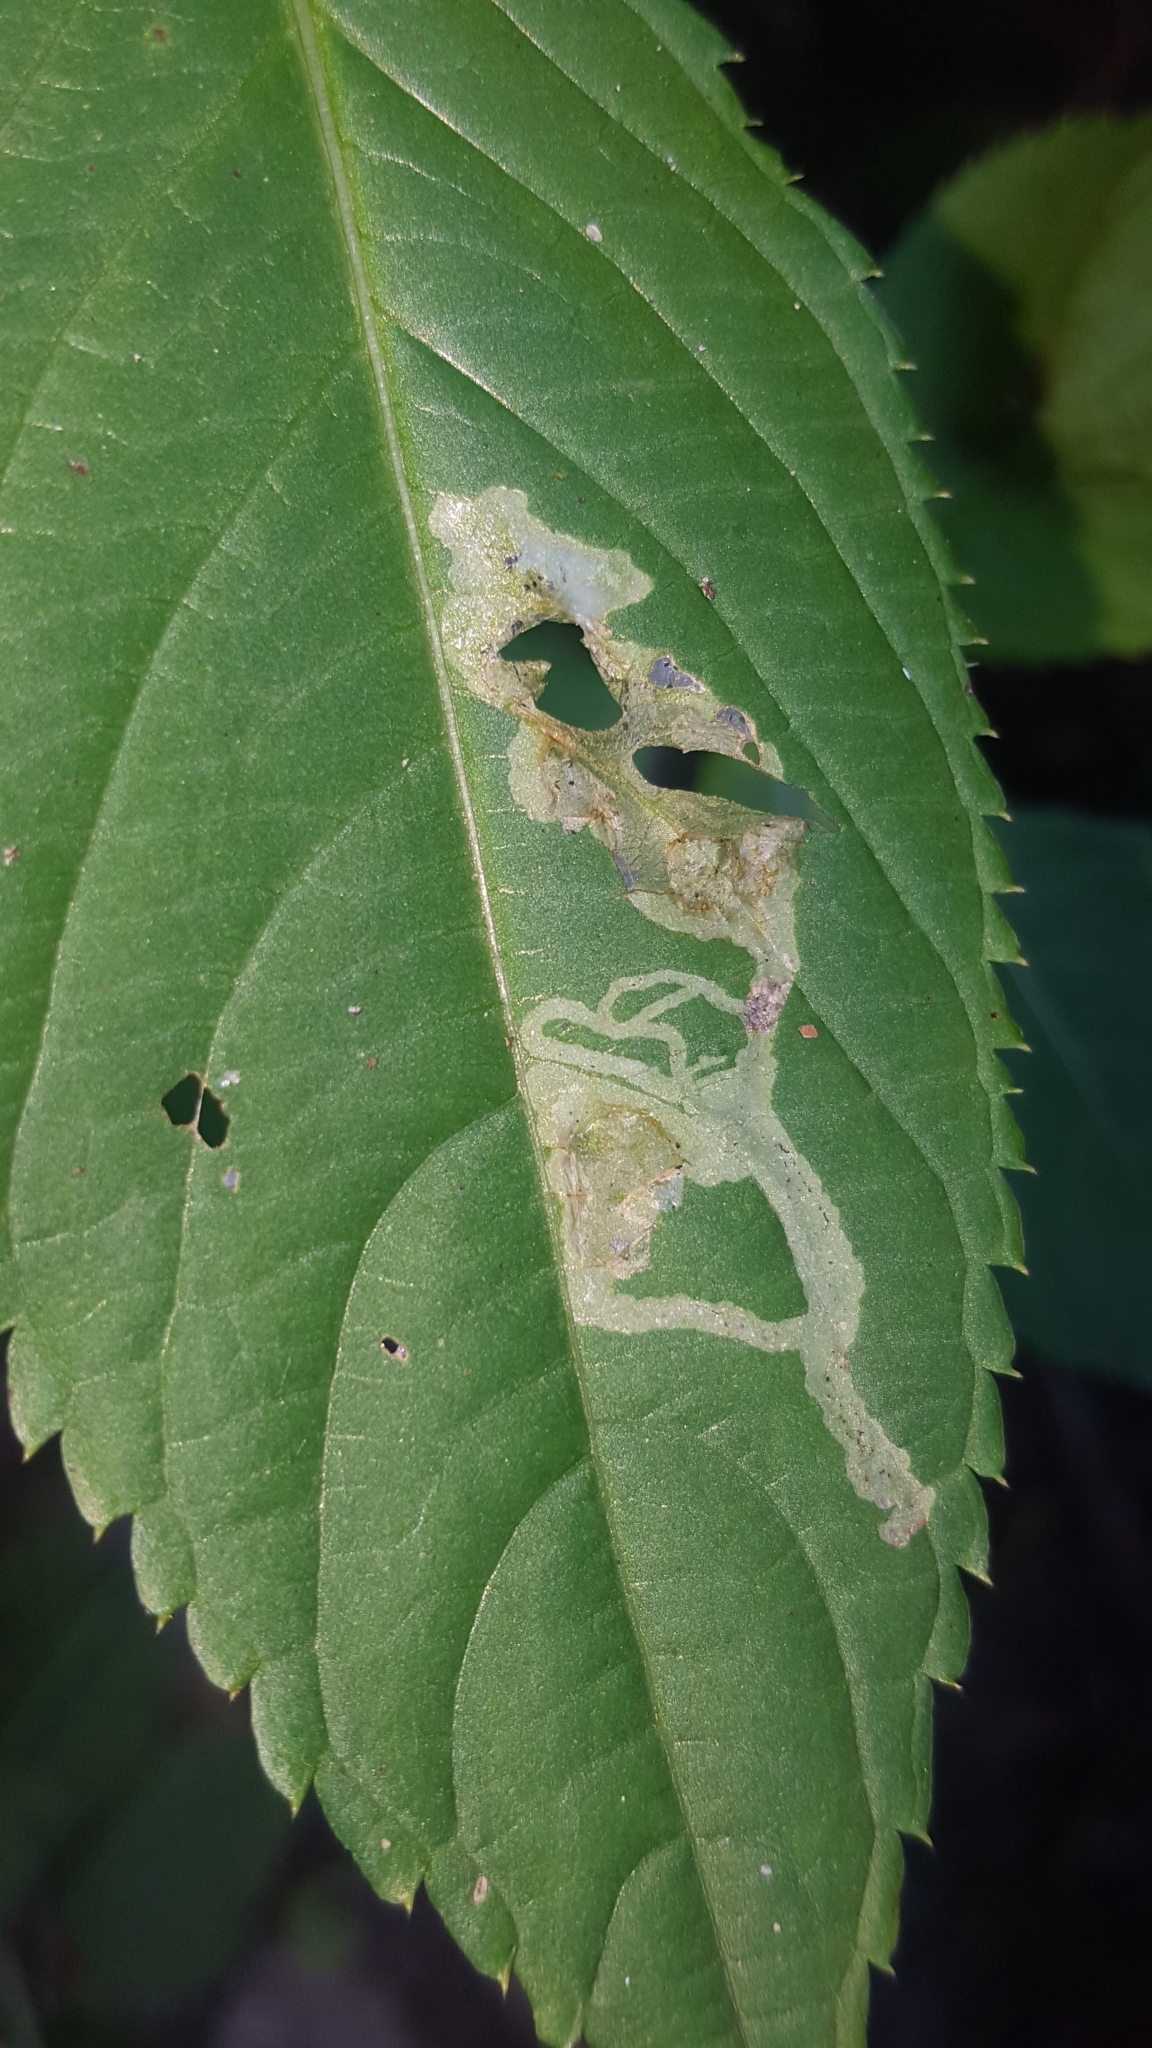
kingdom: Animalia
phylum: Arthropoda
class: Insecta
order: Diptera
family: Agromyzidae
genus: Phytoliriomyza
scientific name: Phytoliriomyza melampyga
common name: Jewelweed leaf-miner fly
